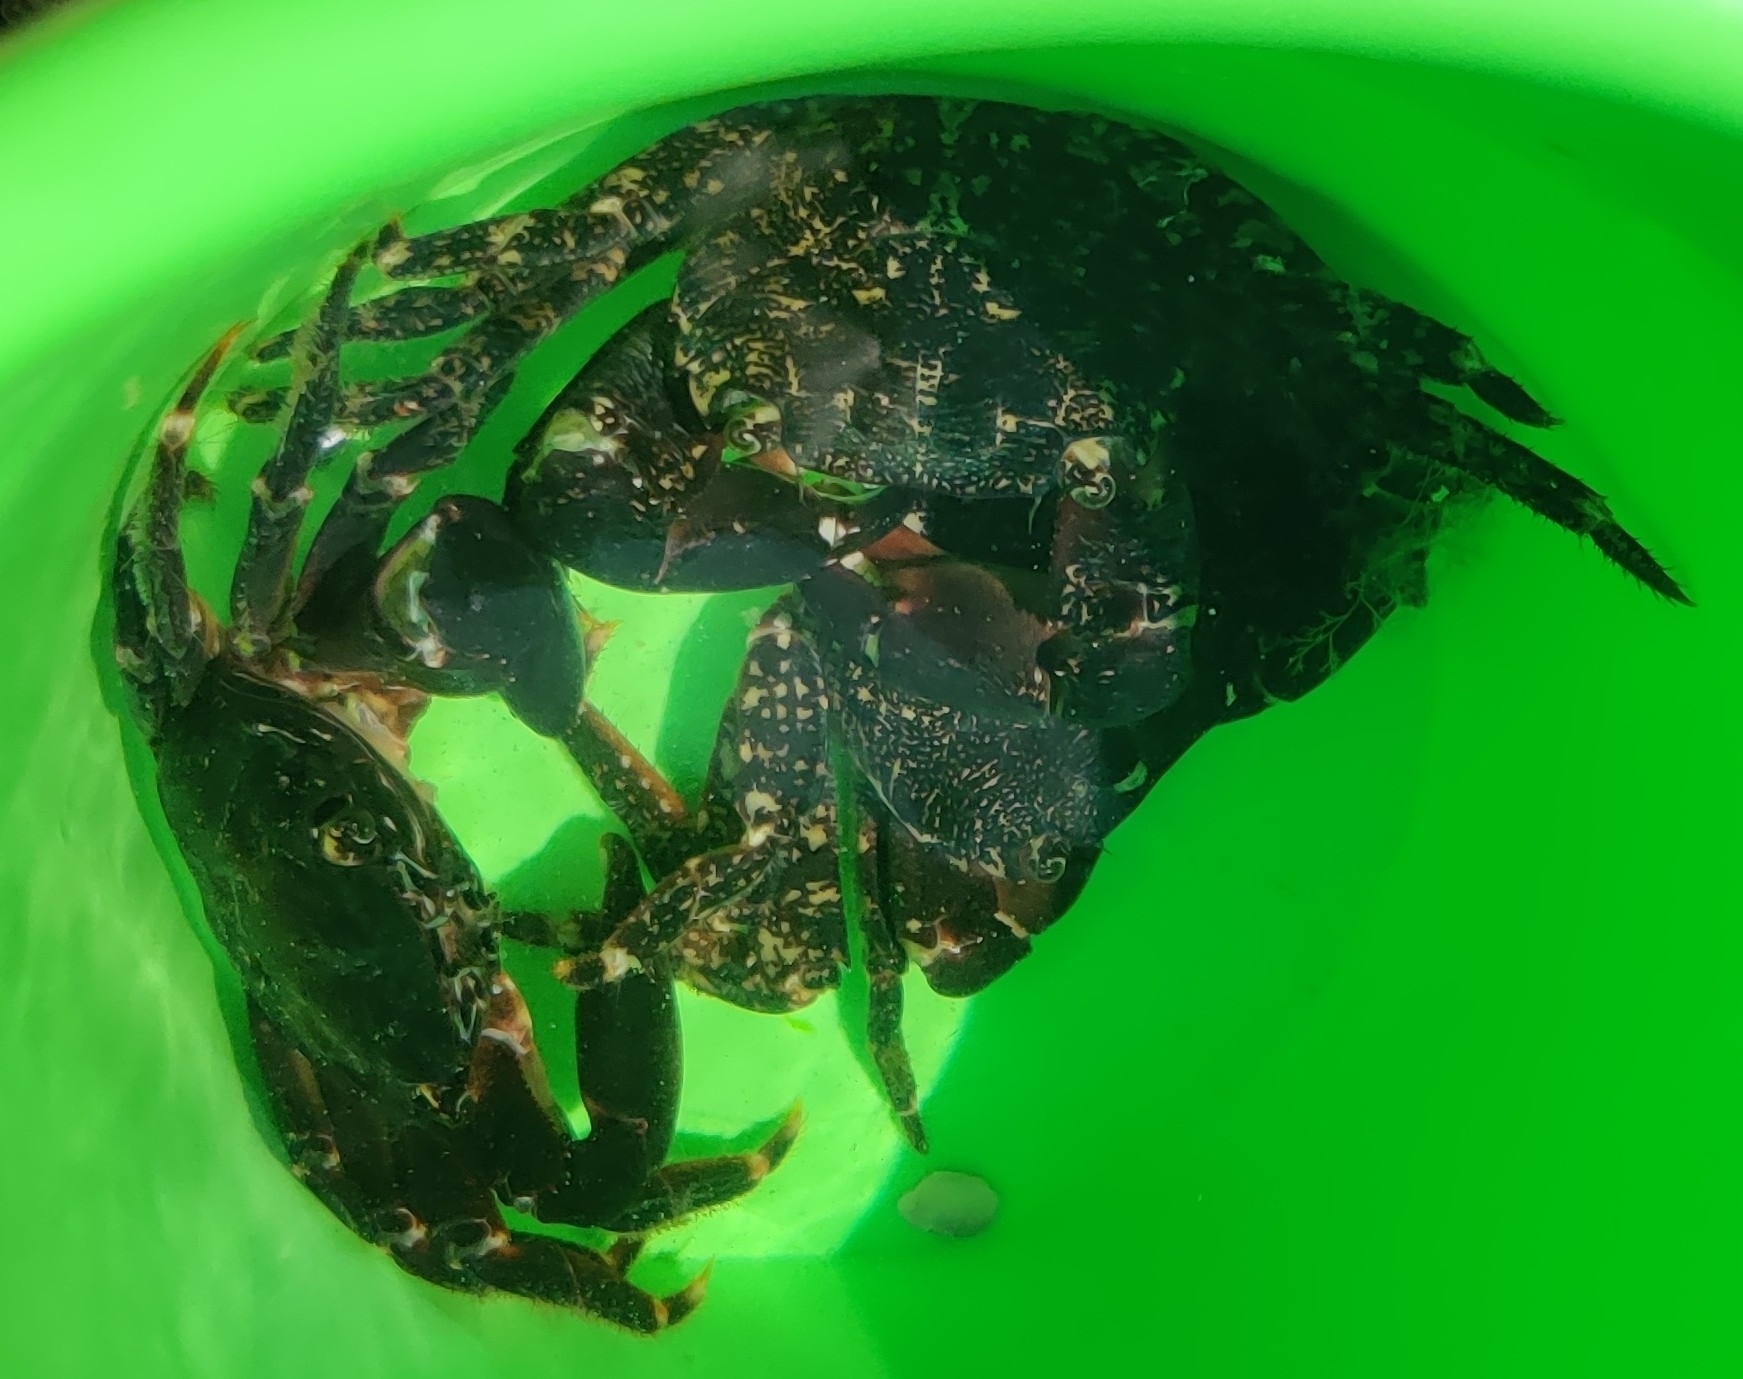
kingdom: Animalia
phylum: Arthropoda
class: Malacostraca
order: Decapoda
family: Grapsidae
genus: Pachygrapsus
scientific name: Pachygrapsus marmoratus
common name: Marbled rock crab
